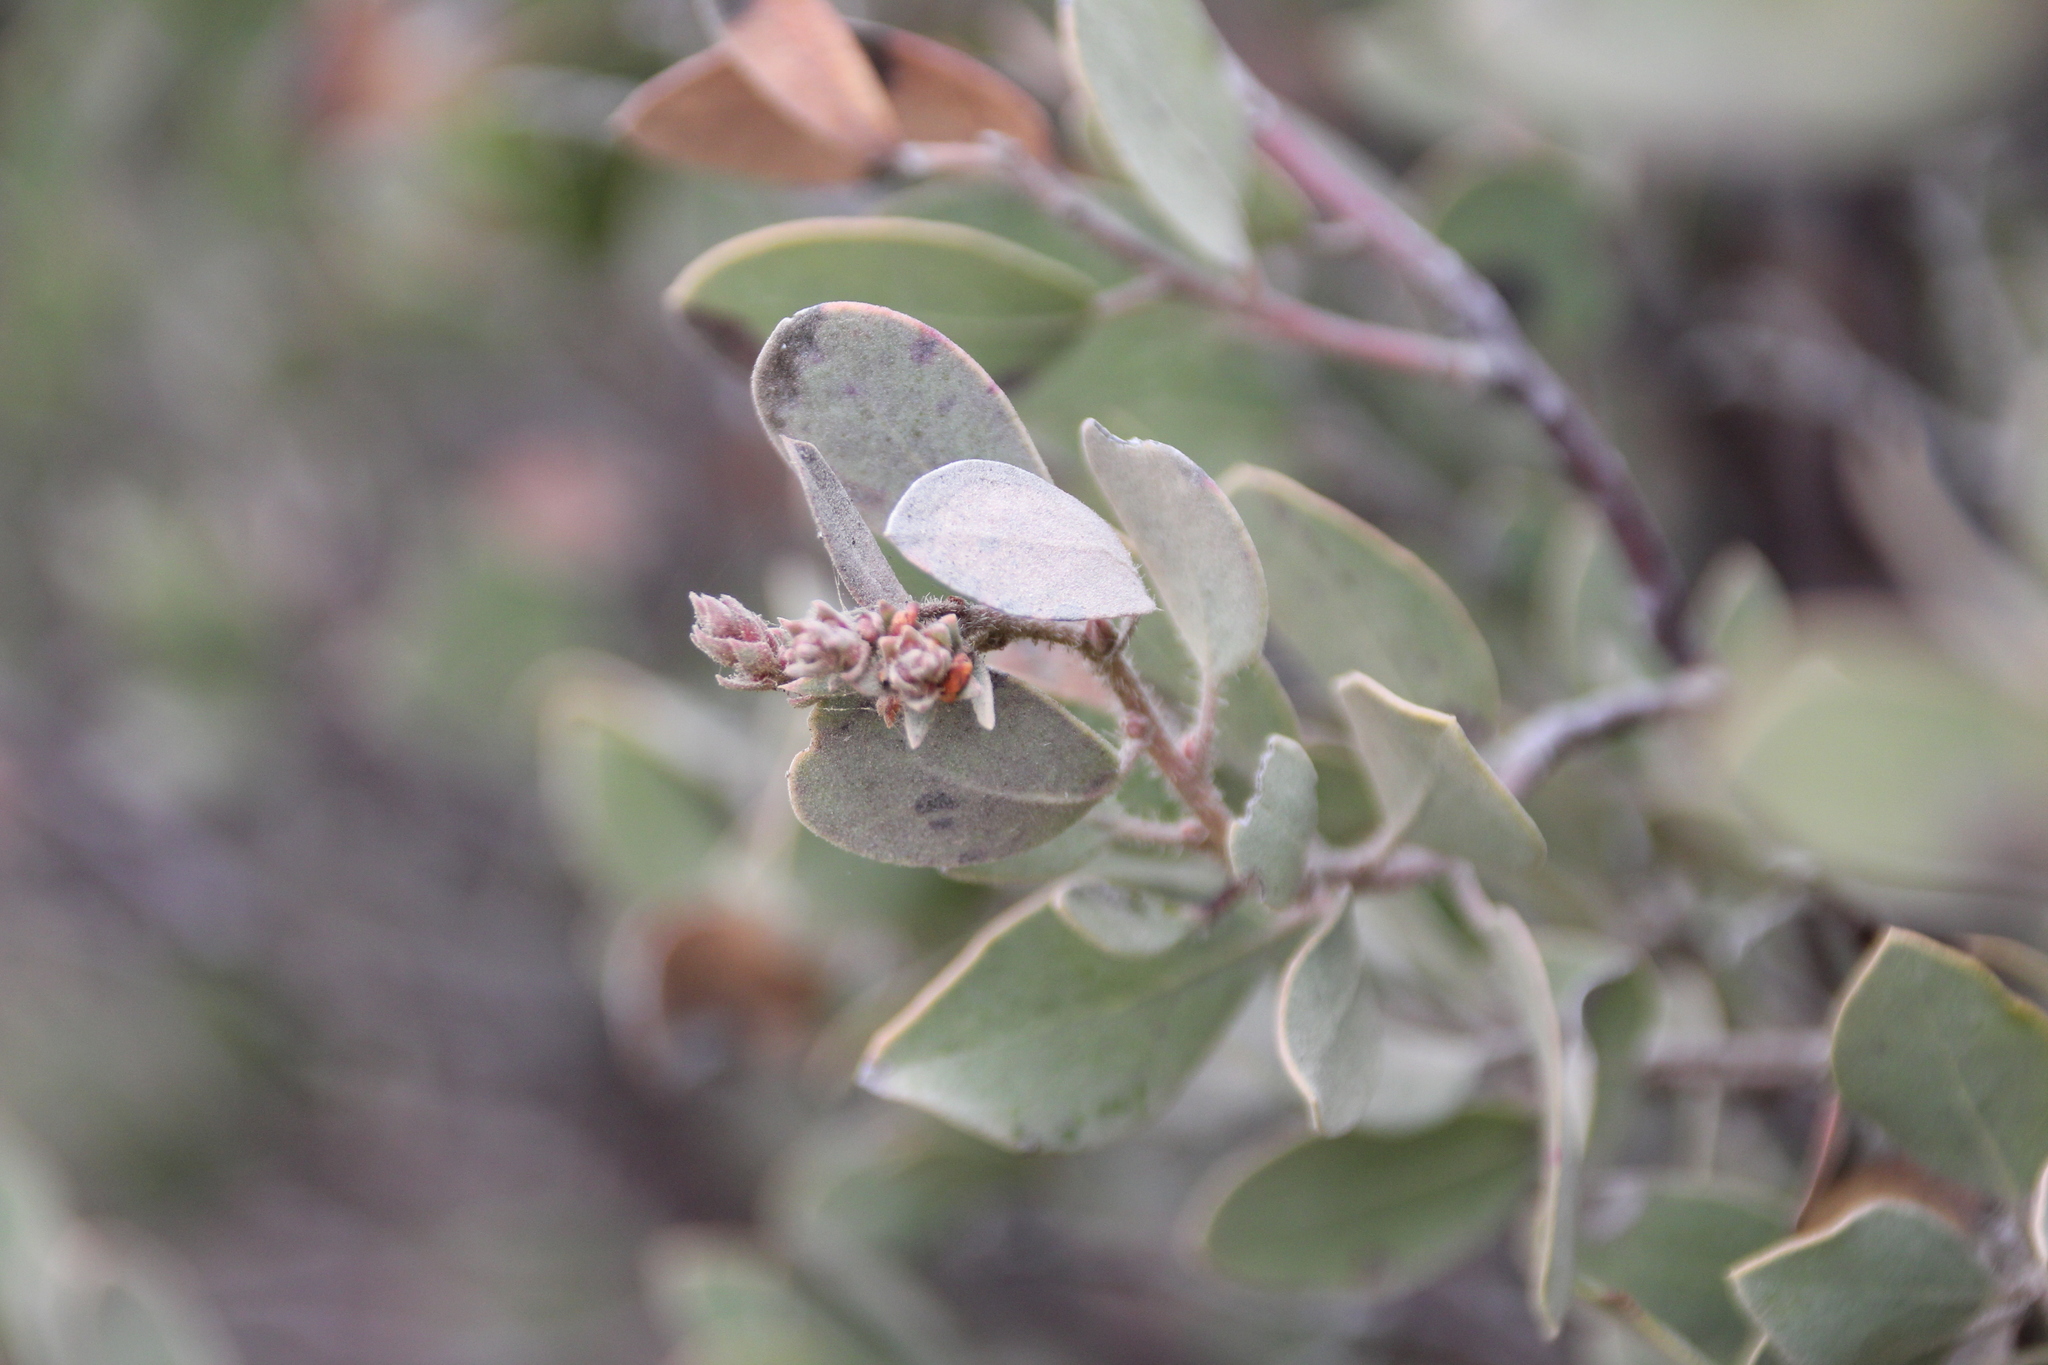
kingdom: Plantae
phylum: Tracheophyta
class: Magnoliopsida
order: Ericales
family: Ericaceae
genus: Arctostaphylos
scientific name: Arctostaphylos glandulosa
